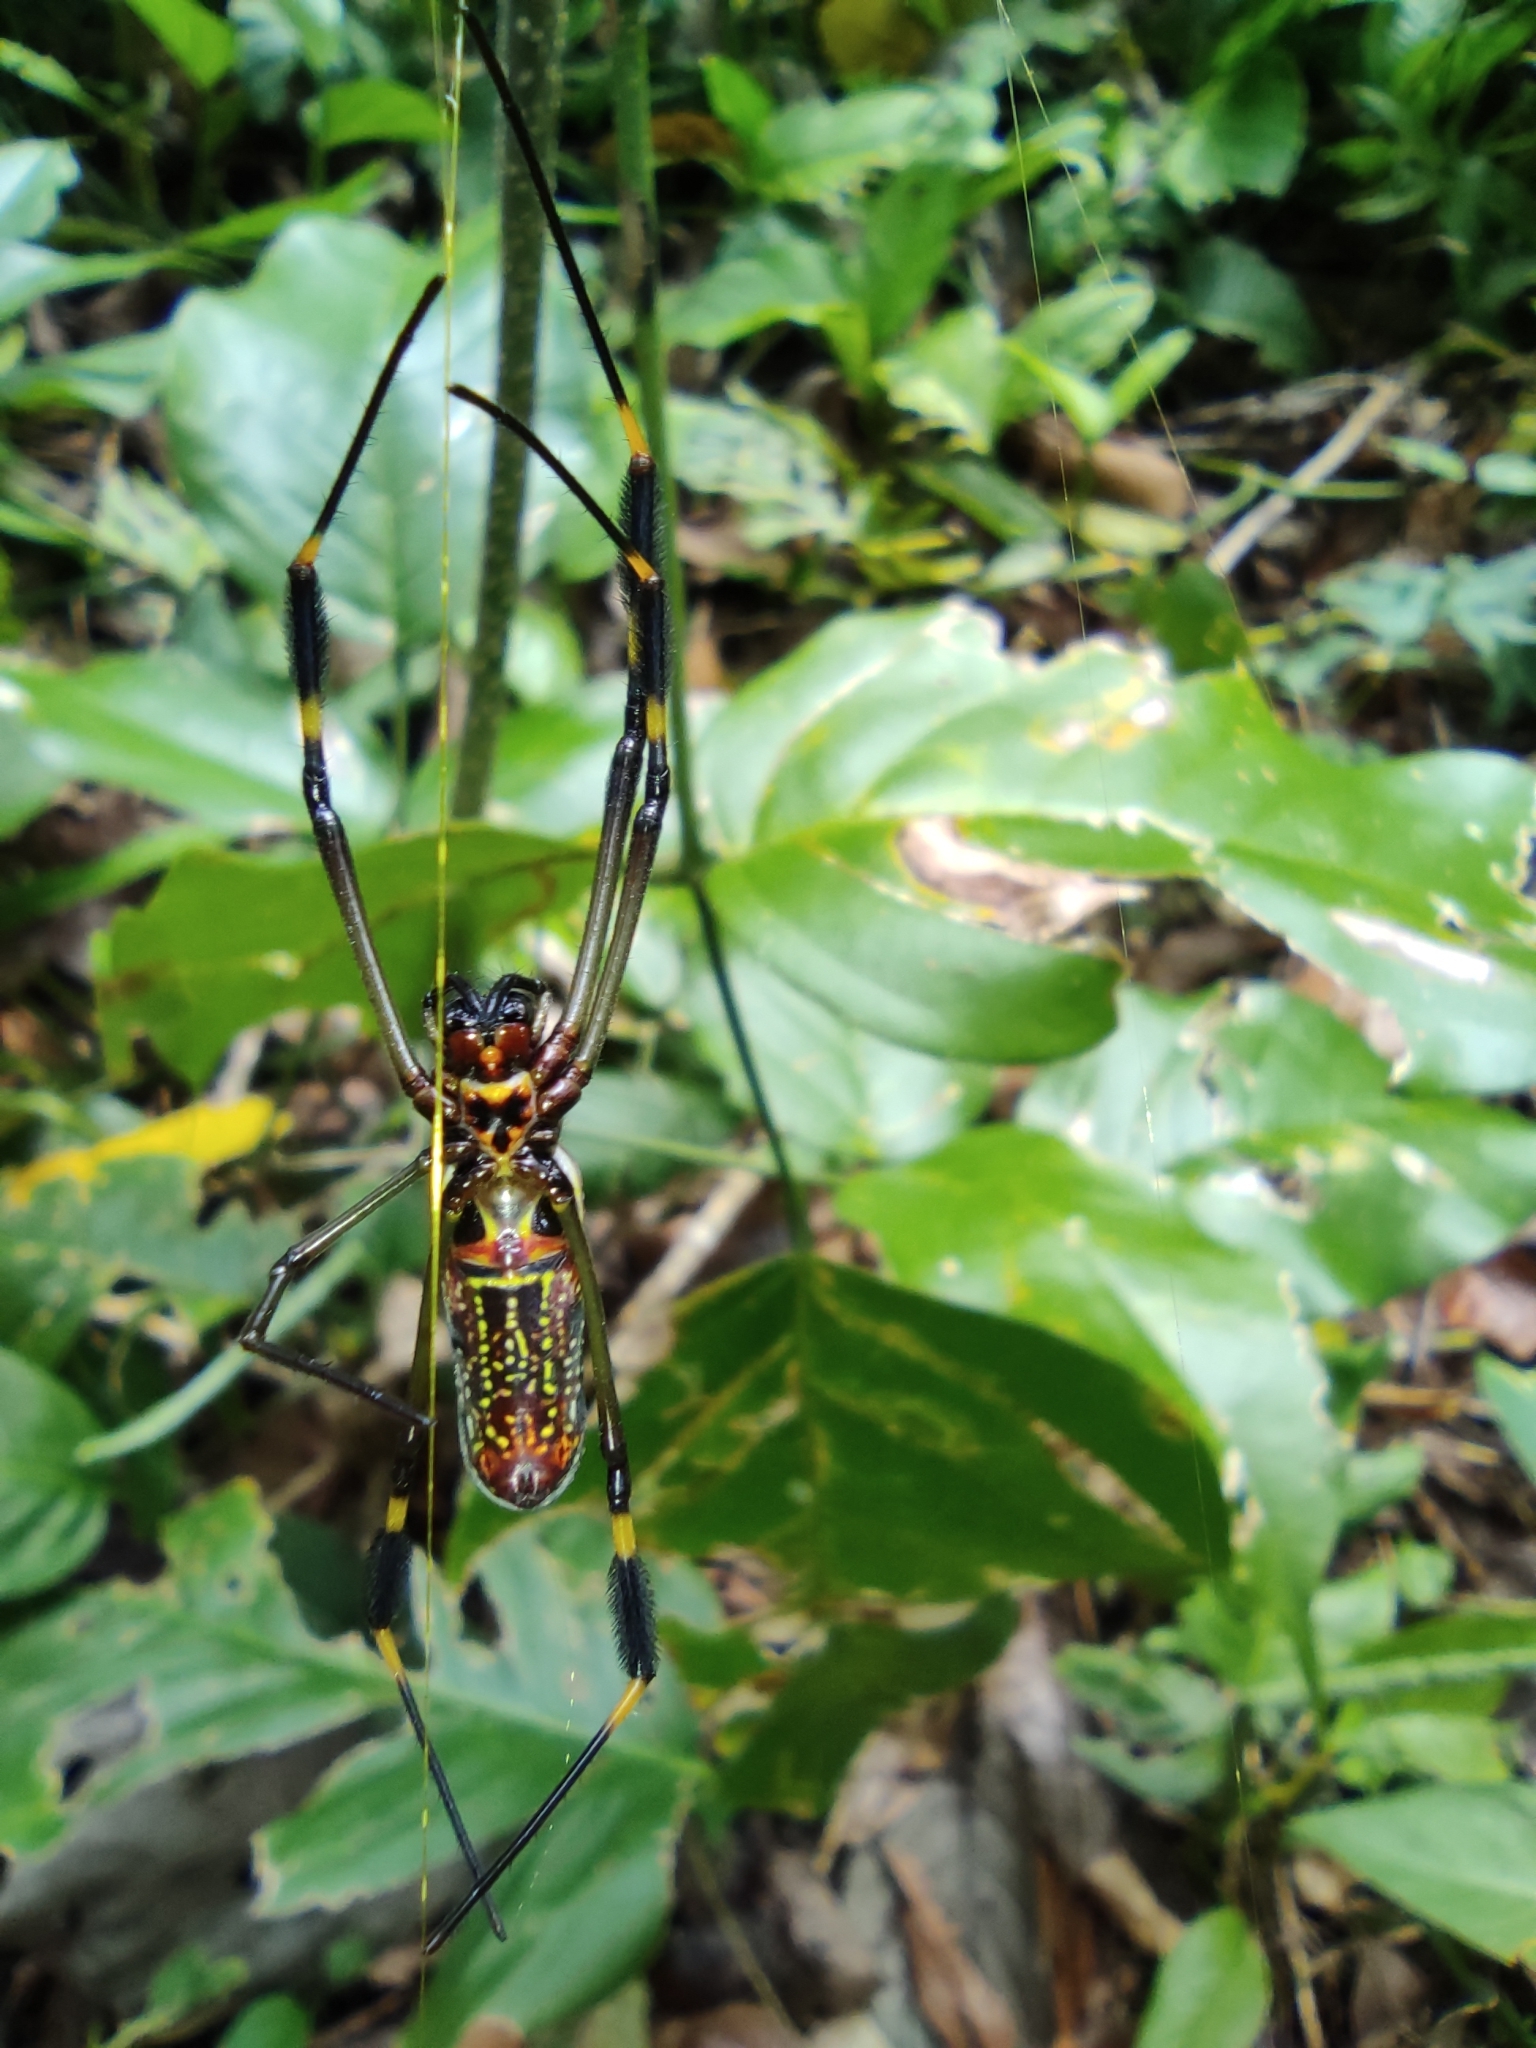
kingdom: Animalia
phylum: Arthropoda
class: Arachnida
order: Araneae
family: Araneidae
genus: Trichonephila
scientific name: Trichonephila clavipes
